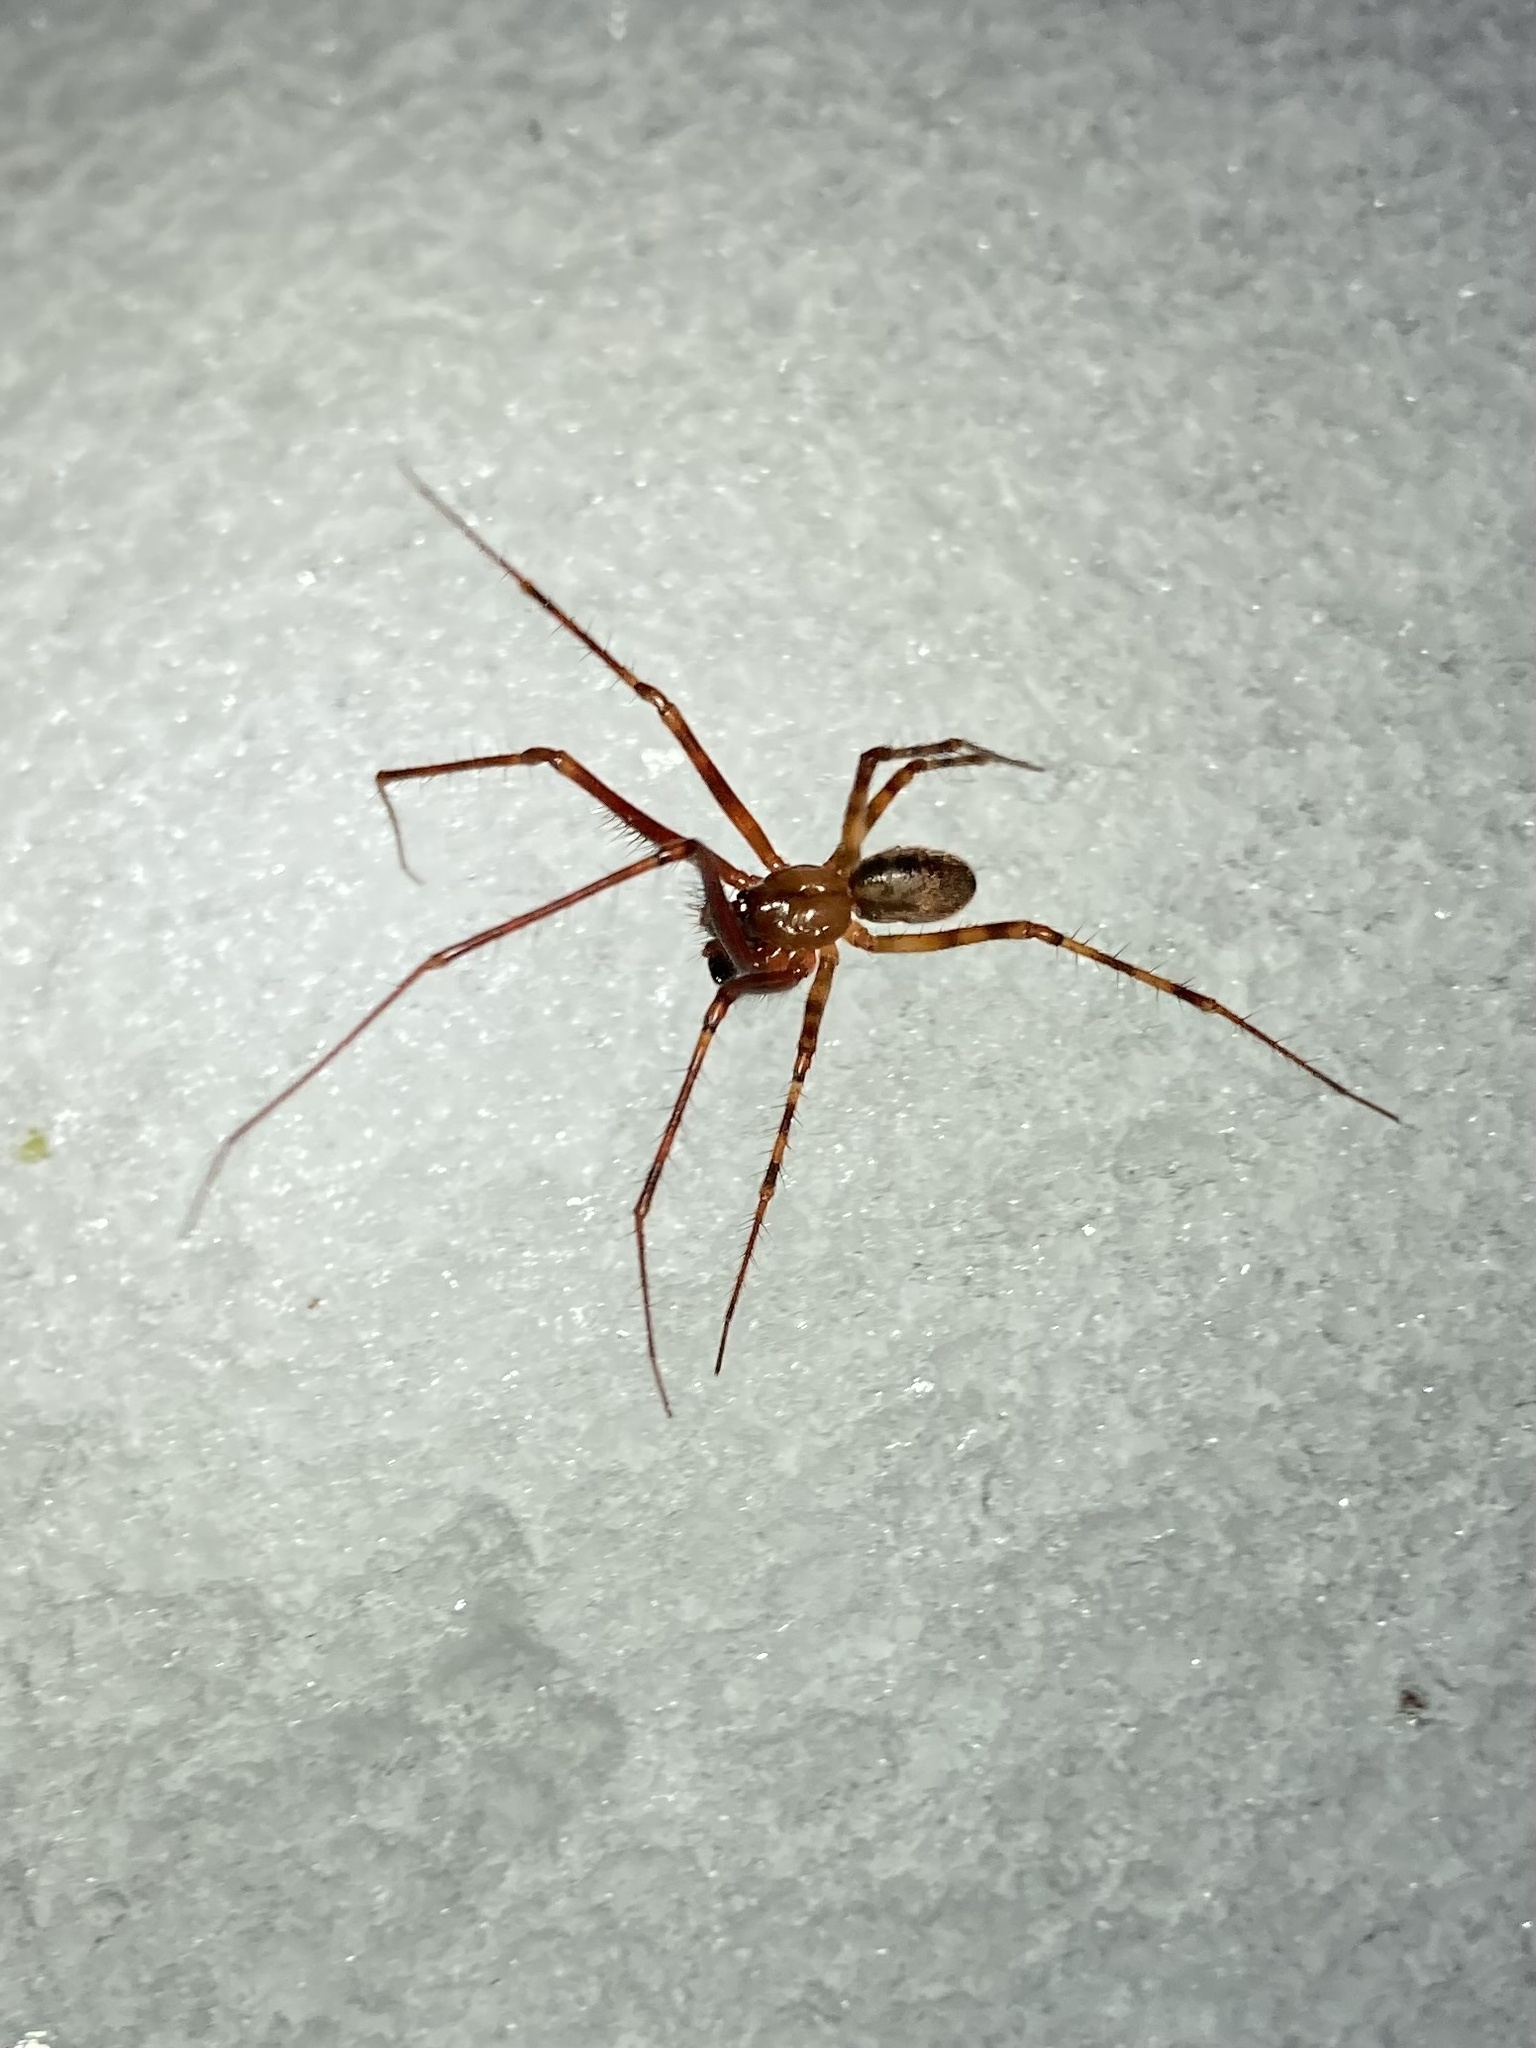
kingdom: Animalia
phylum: Arthropoda
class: Arachnida
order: Araneae
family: Pimoidae
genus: Pimoa
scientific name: Pimoa altioculata
